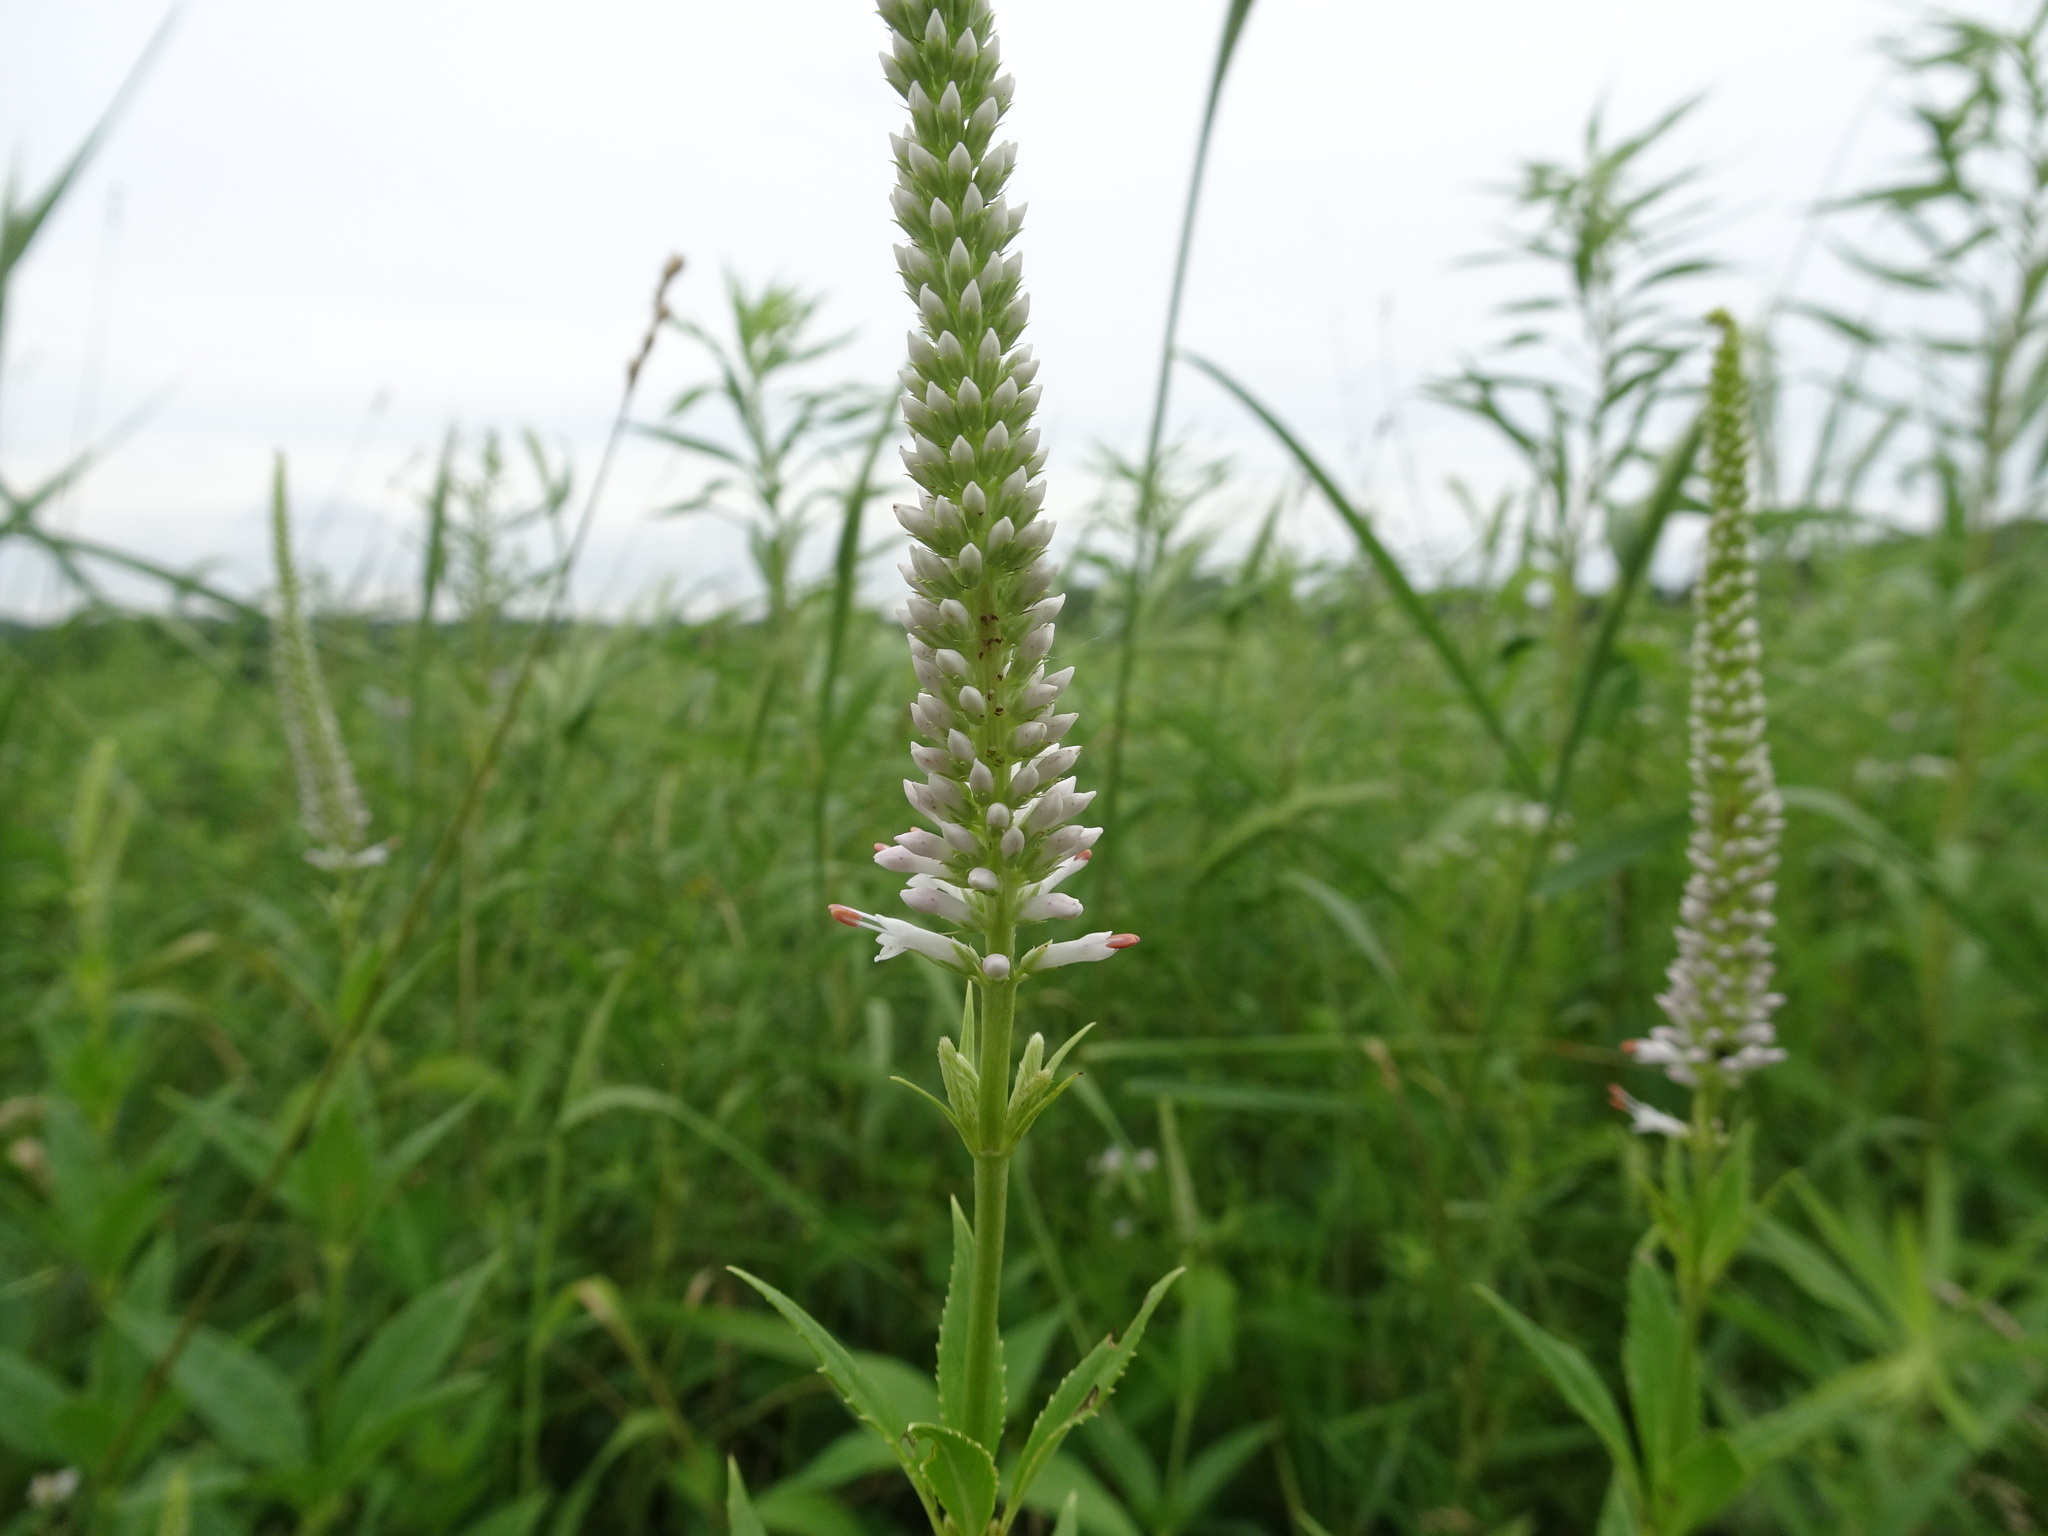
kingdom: Plantae
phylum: Tracheophyta
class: Magnoliopsida
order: Lamiales
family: Plantaginaceae
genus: Veronicastrum
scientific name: Veronicastrum virginicum
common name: Blackroot
